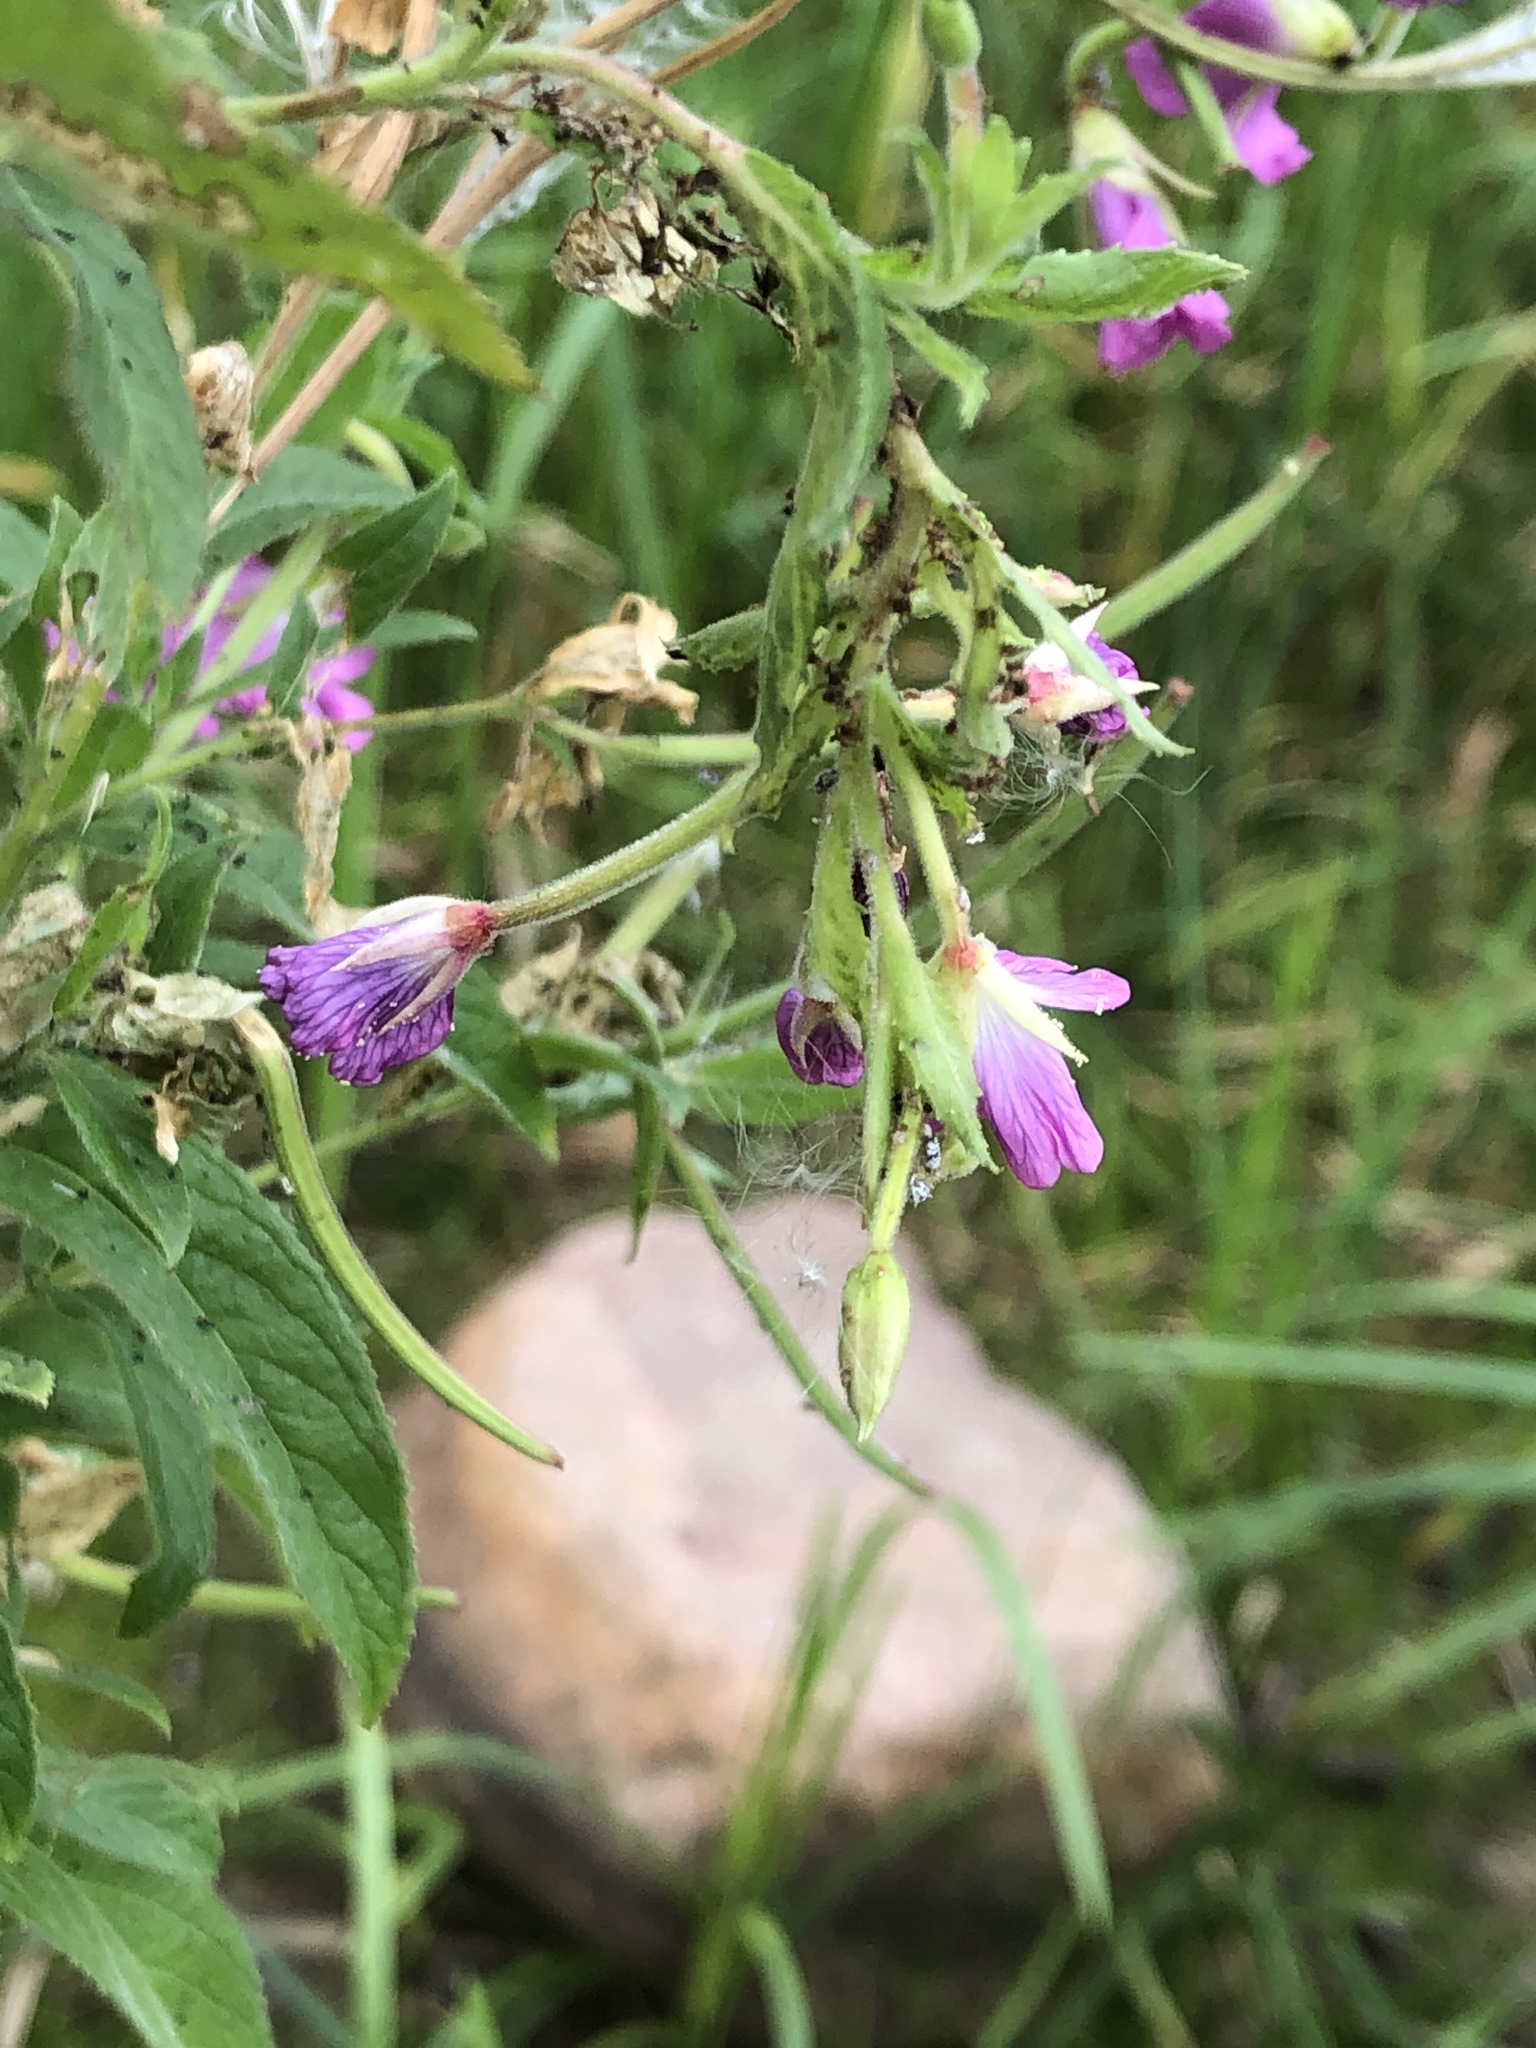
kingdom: Plantae
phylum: Tracheophyta
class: Magnoliopsida
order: Myrtales
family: Onagraceae
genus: Epilobium
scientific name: Epilobium hirsutum
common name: Great willowherb
